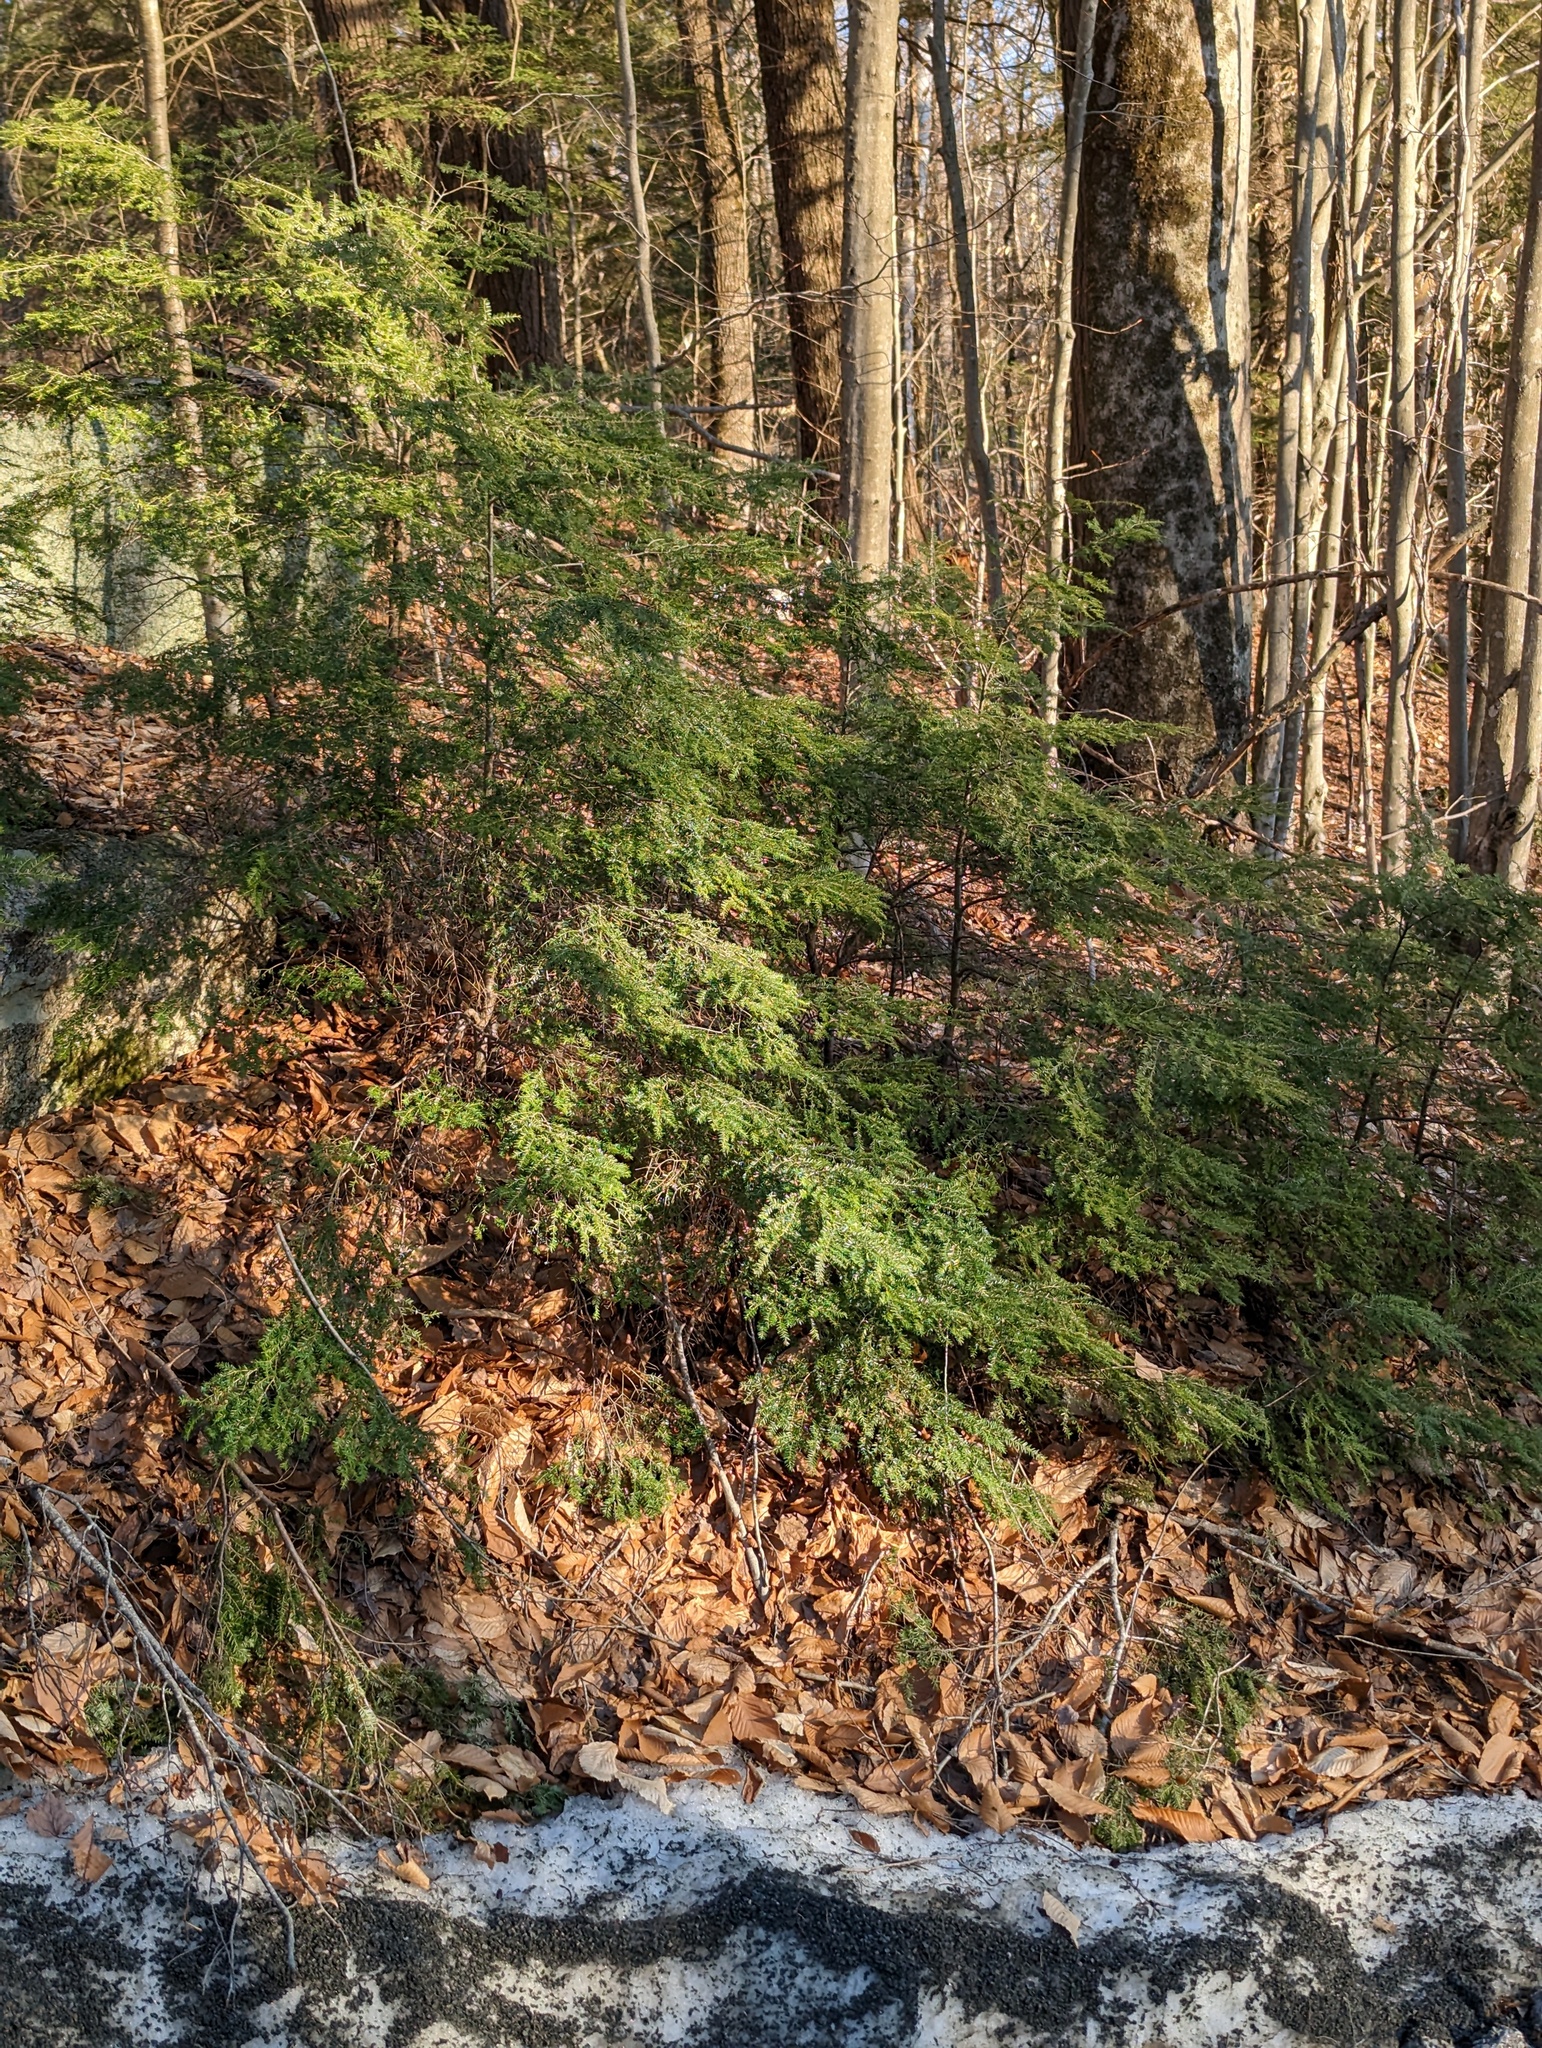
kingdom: Plantae
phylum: Tracheophyta
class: Pinopsida
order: Pinales
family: Pinaceae
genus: Tsuga
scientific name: Tsuga canadensis
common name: Eastern hemlock
